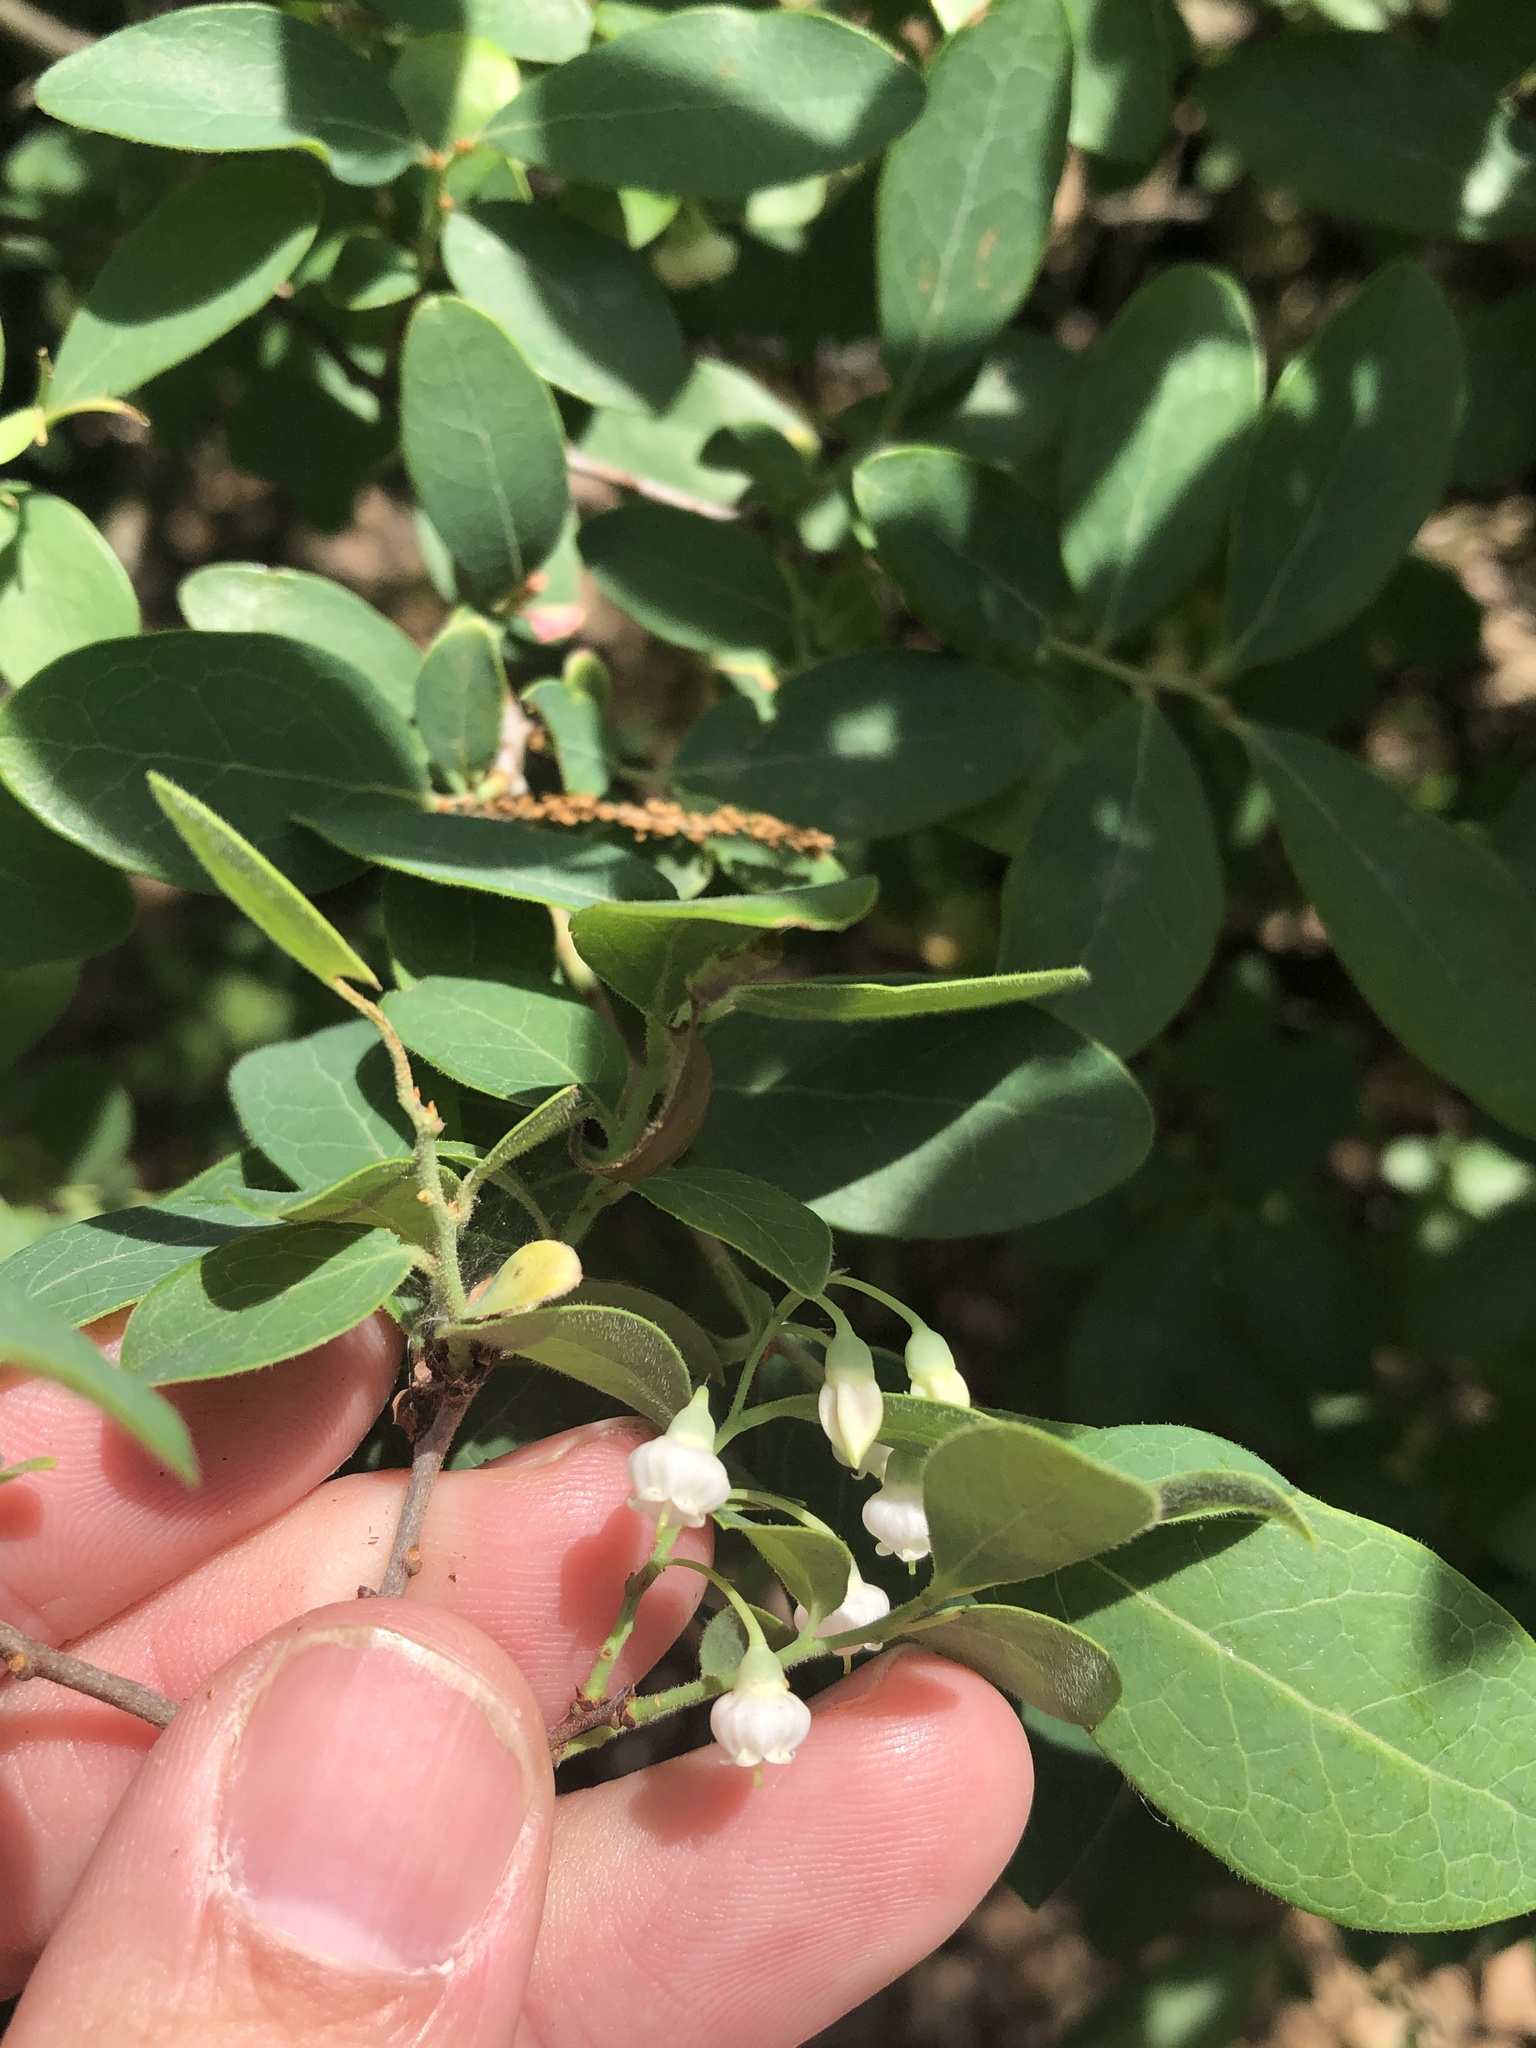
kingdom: Plantae
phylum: Tracheophyta
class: Magnoliopsida
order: Ericales
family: Ericaceae
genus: Vaccinium
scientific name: Vaccinium arboreum
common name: Farkleberry
